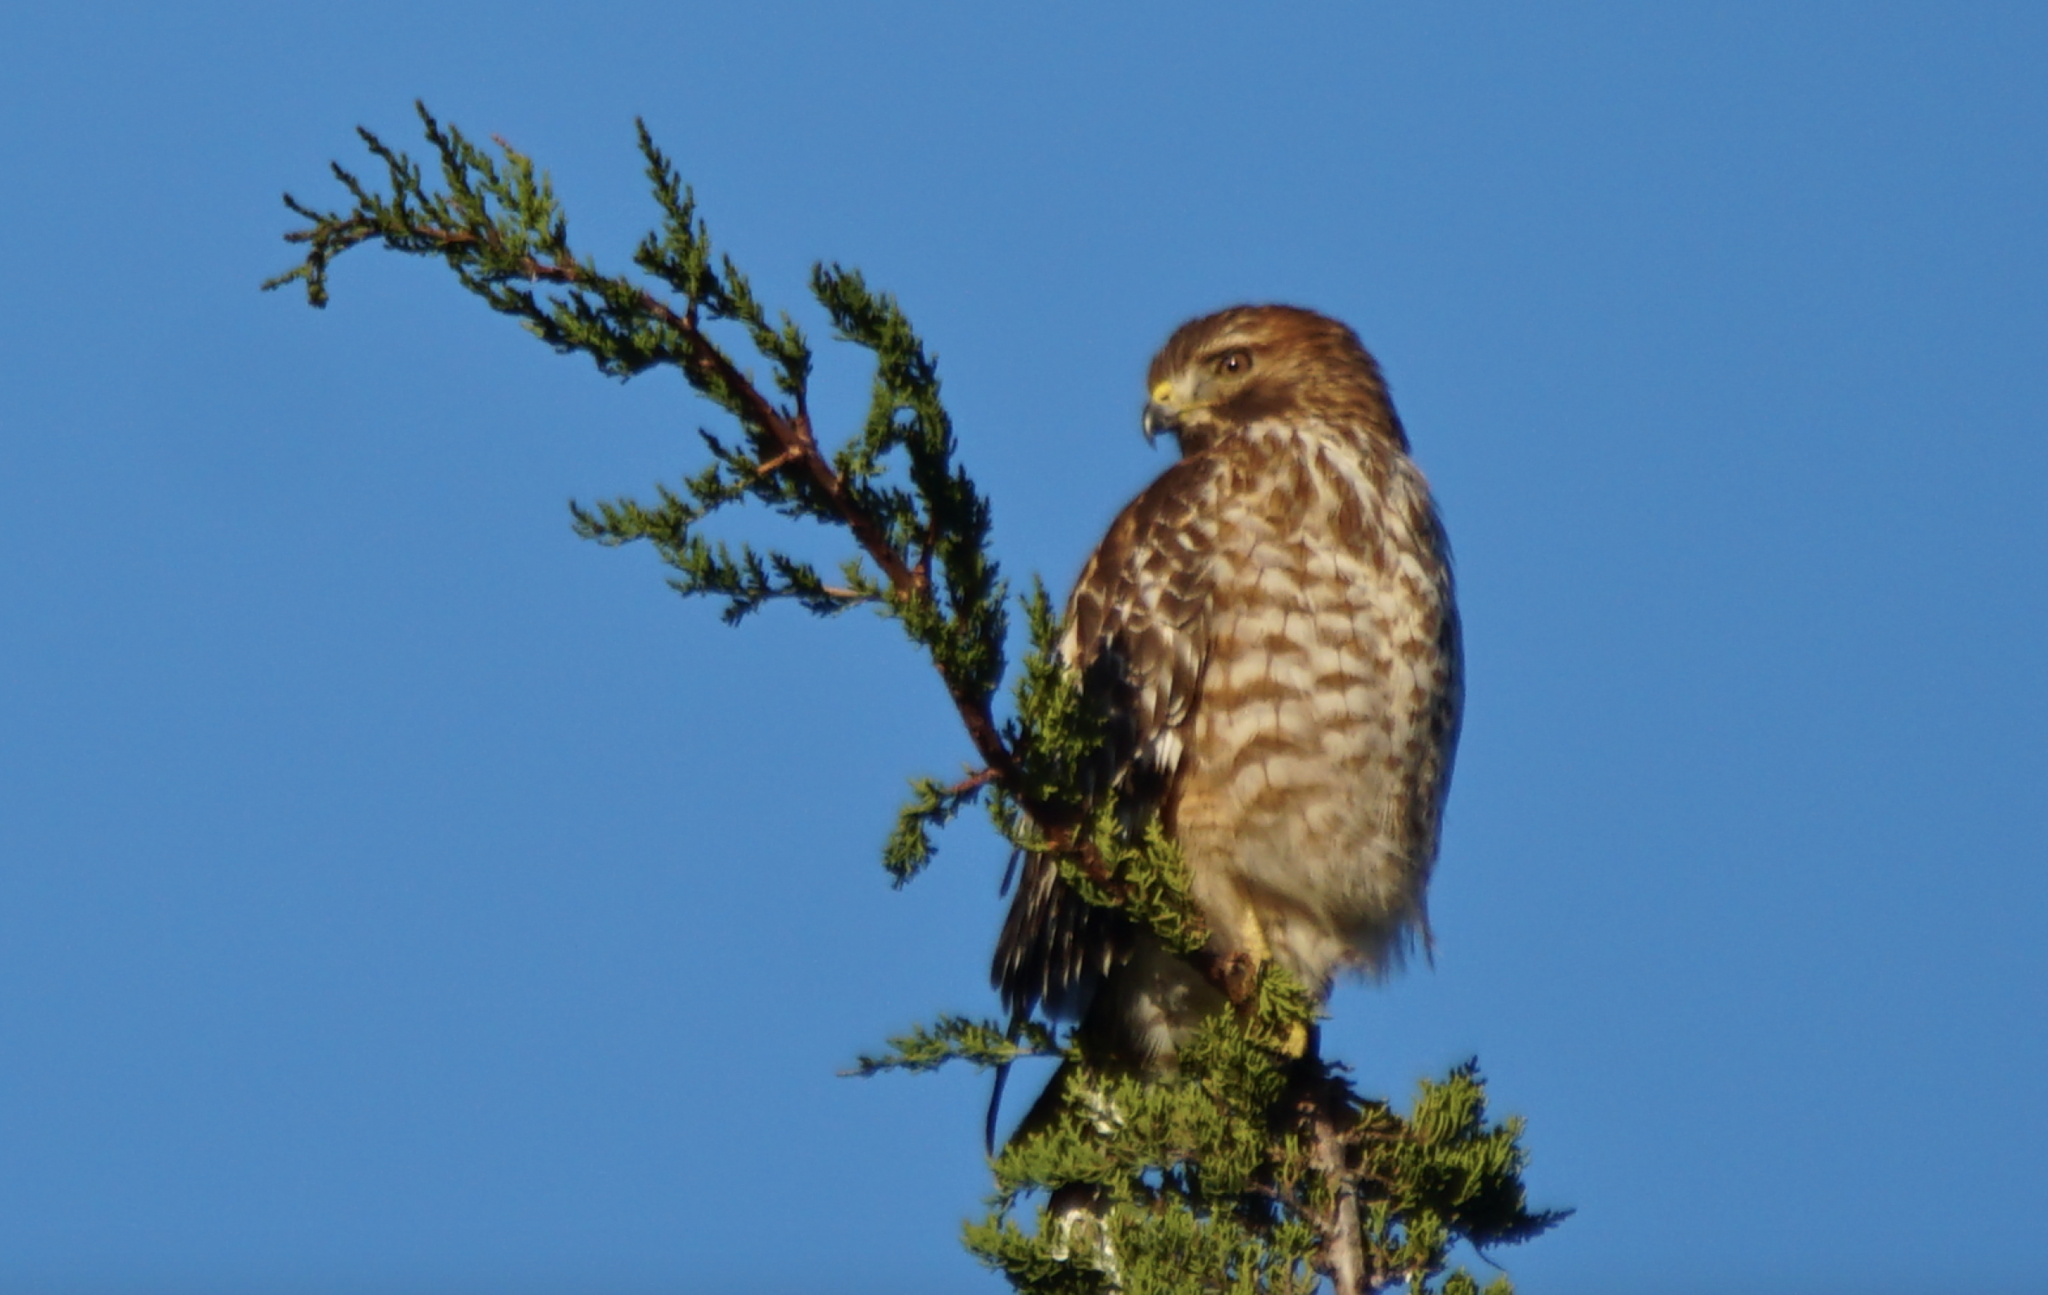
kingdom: Animalia
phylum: Chordata
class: Aves
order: Accipitriformes
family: Accipitridae
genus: Buteo
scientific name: Buteo lineatus
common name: Red-shouldered hawk
